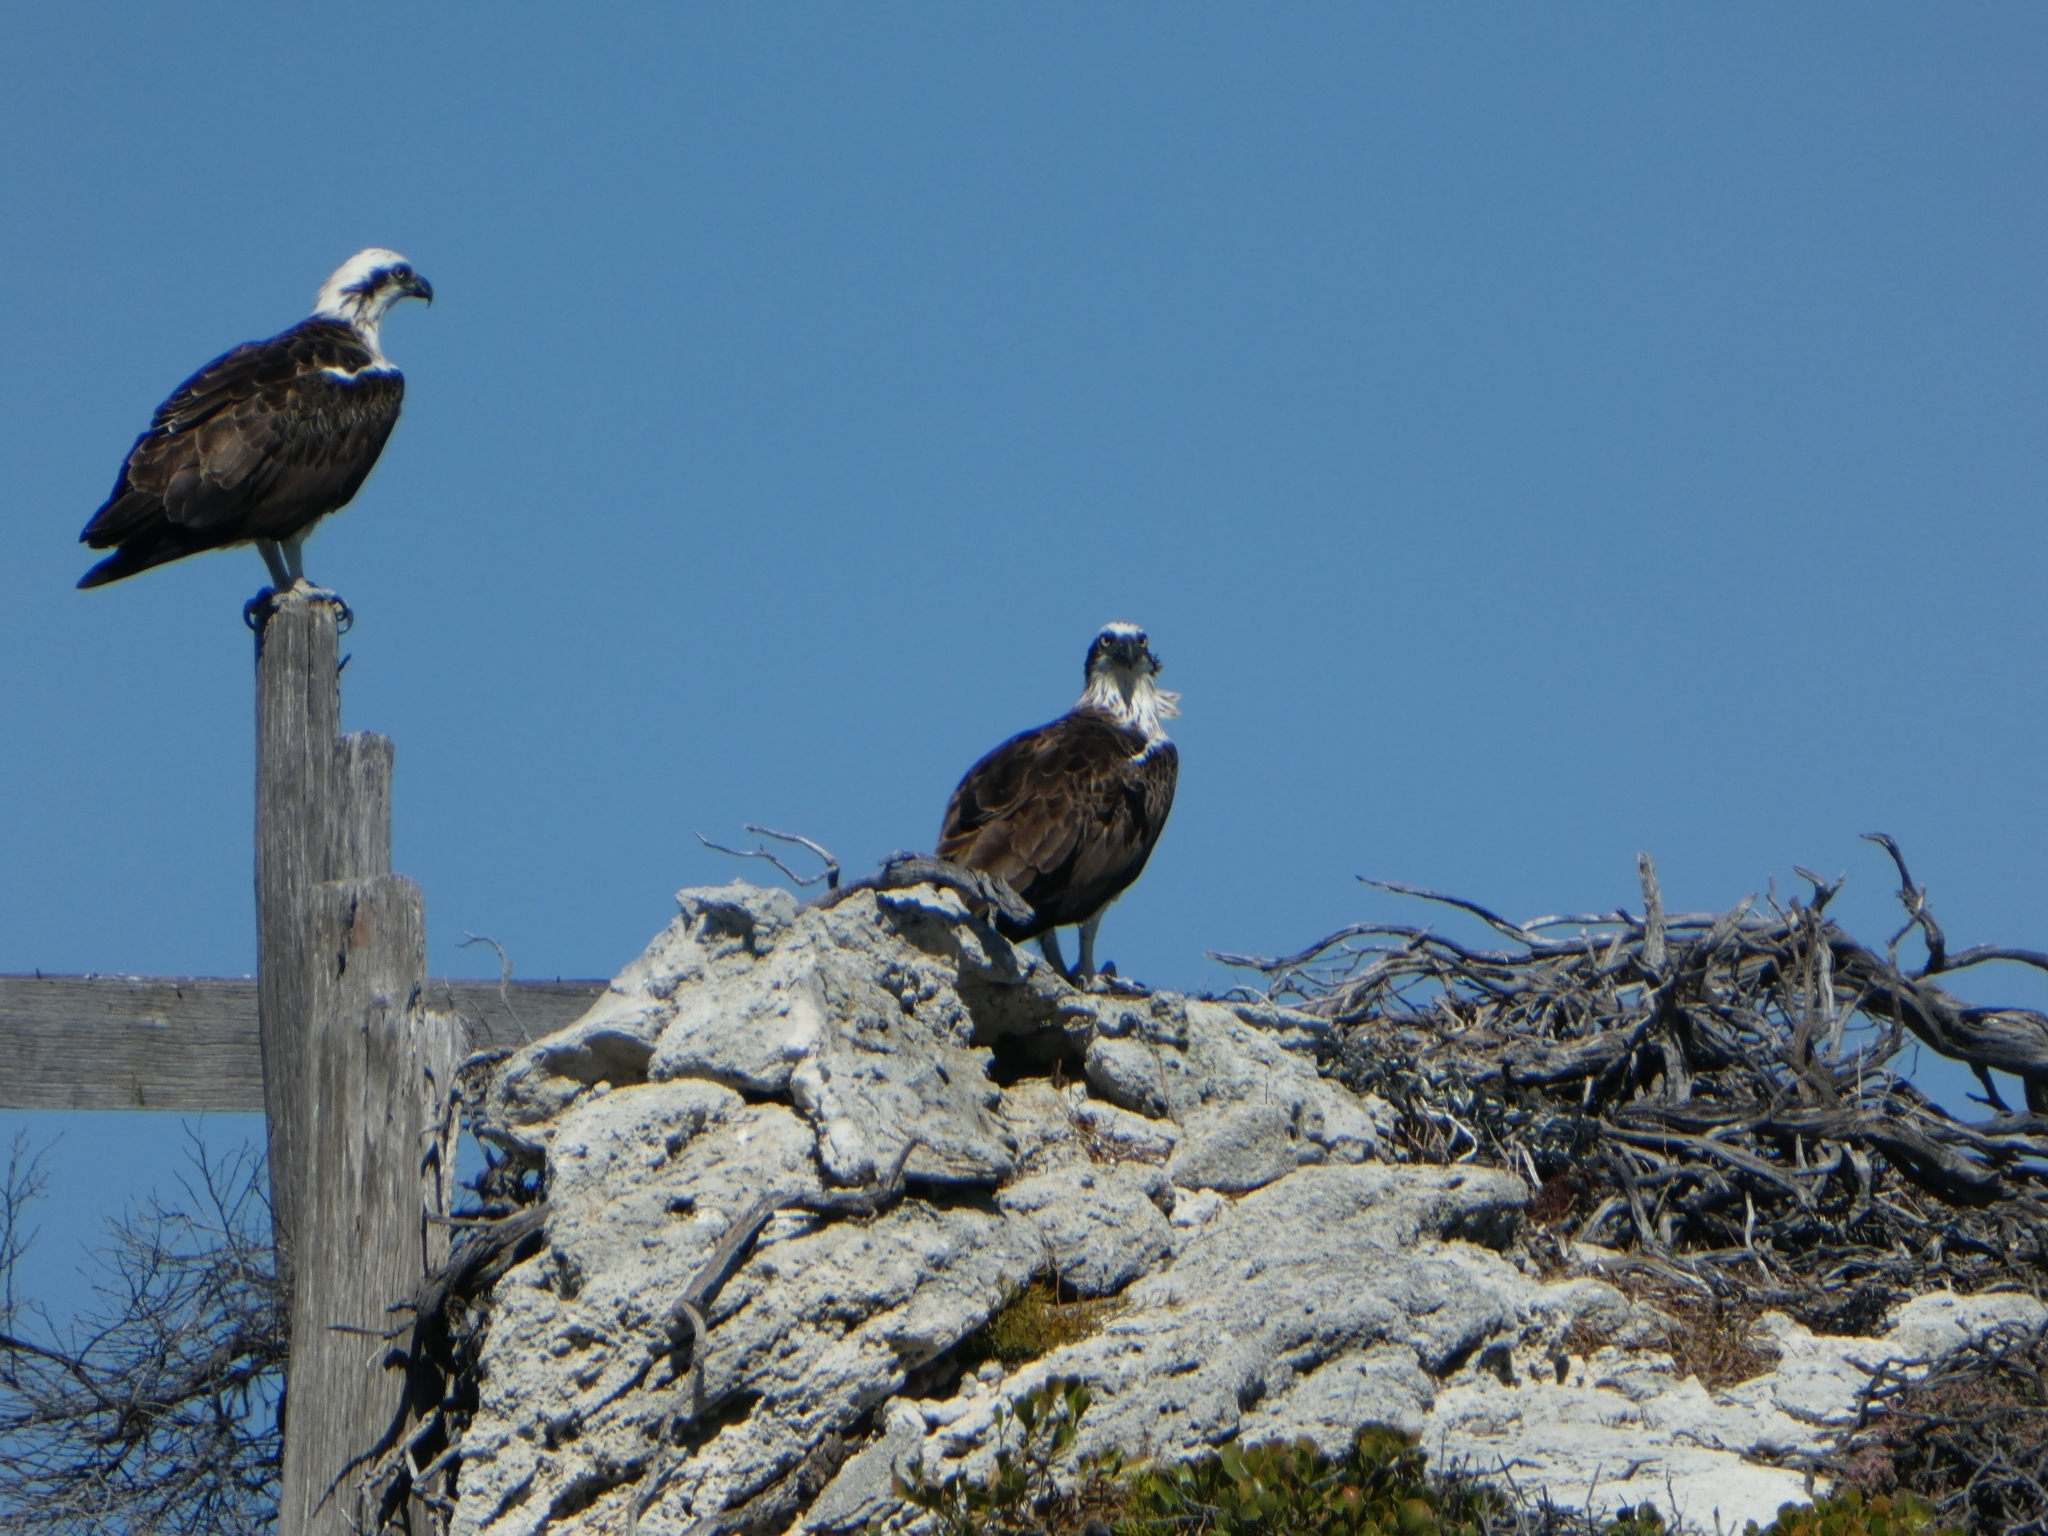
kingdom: Animalia
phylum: Chordata
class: Aves
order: Accipitriformes
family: Pandionidae
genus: Pandion
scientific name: Pandion haliaetus
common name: Osprey
